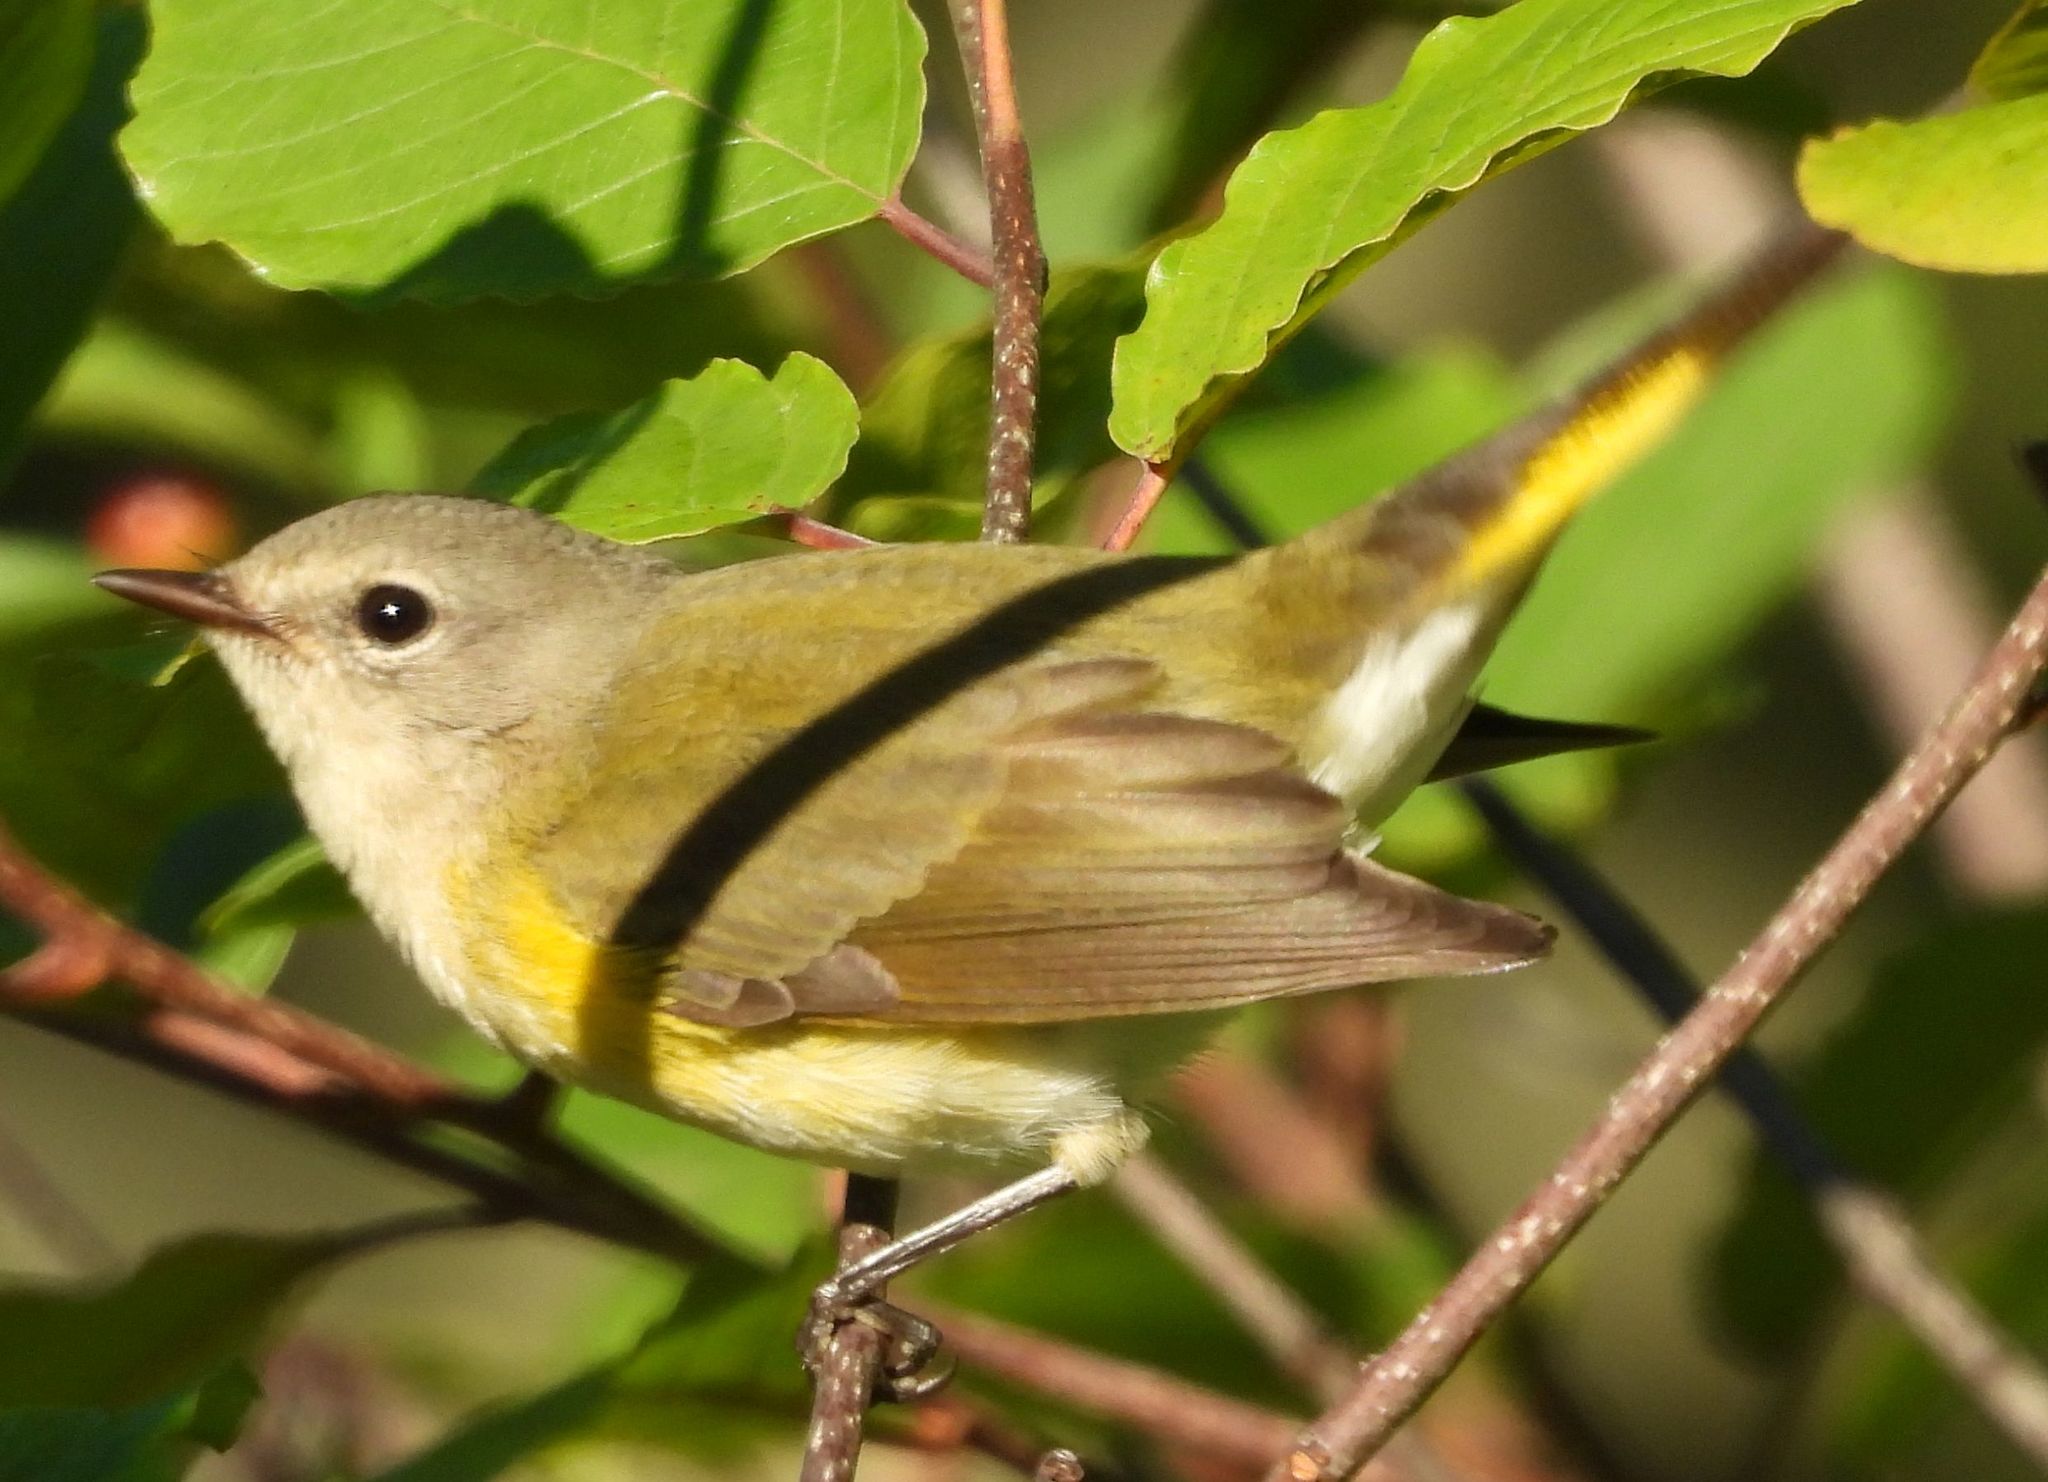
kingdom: Animalia
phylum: Chordata
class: Aves
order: Passeriformes
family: Parulidae
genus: Setophaga
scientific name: Setophaga ruticilla
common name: American redstart
